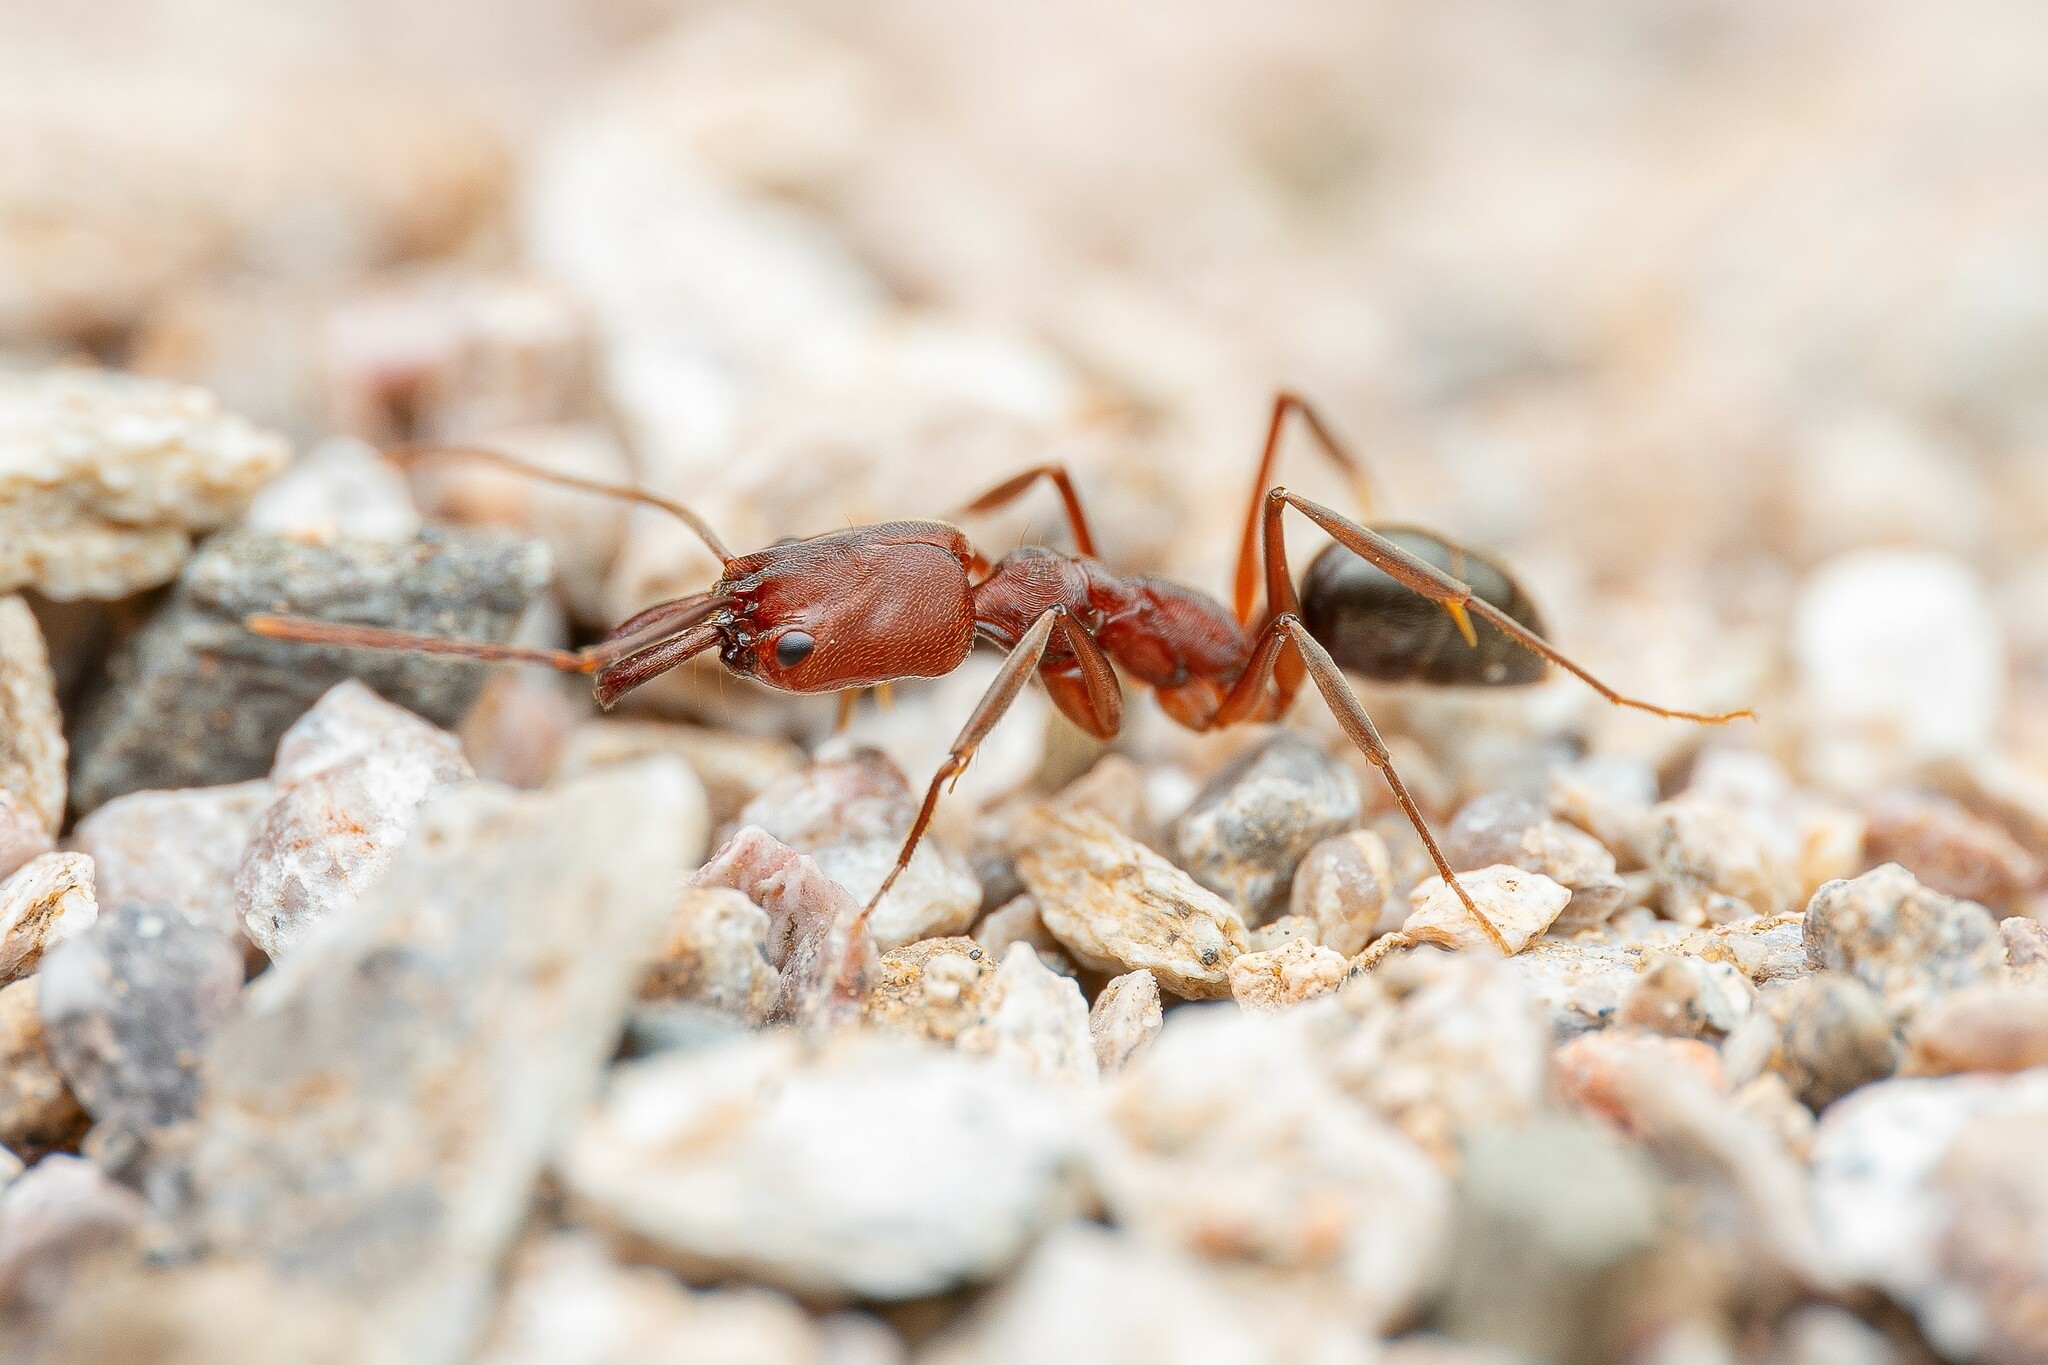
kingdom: Animalia
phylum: Arthropoda
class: Insecta
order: Hymenoptera
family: Formicidae
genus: Odontomachus
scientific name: Odontomachus
